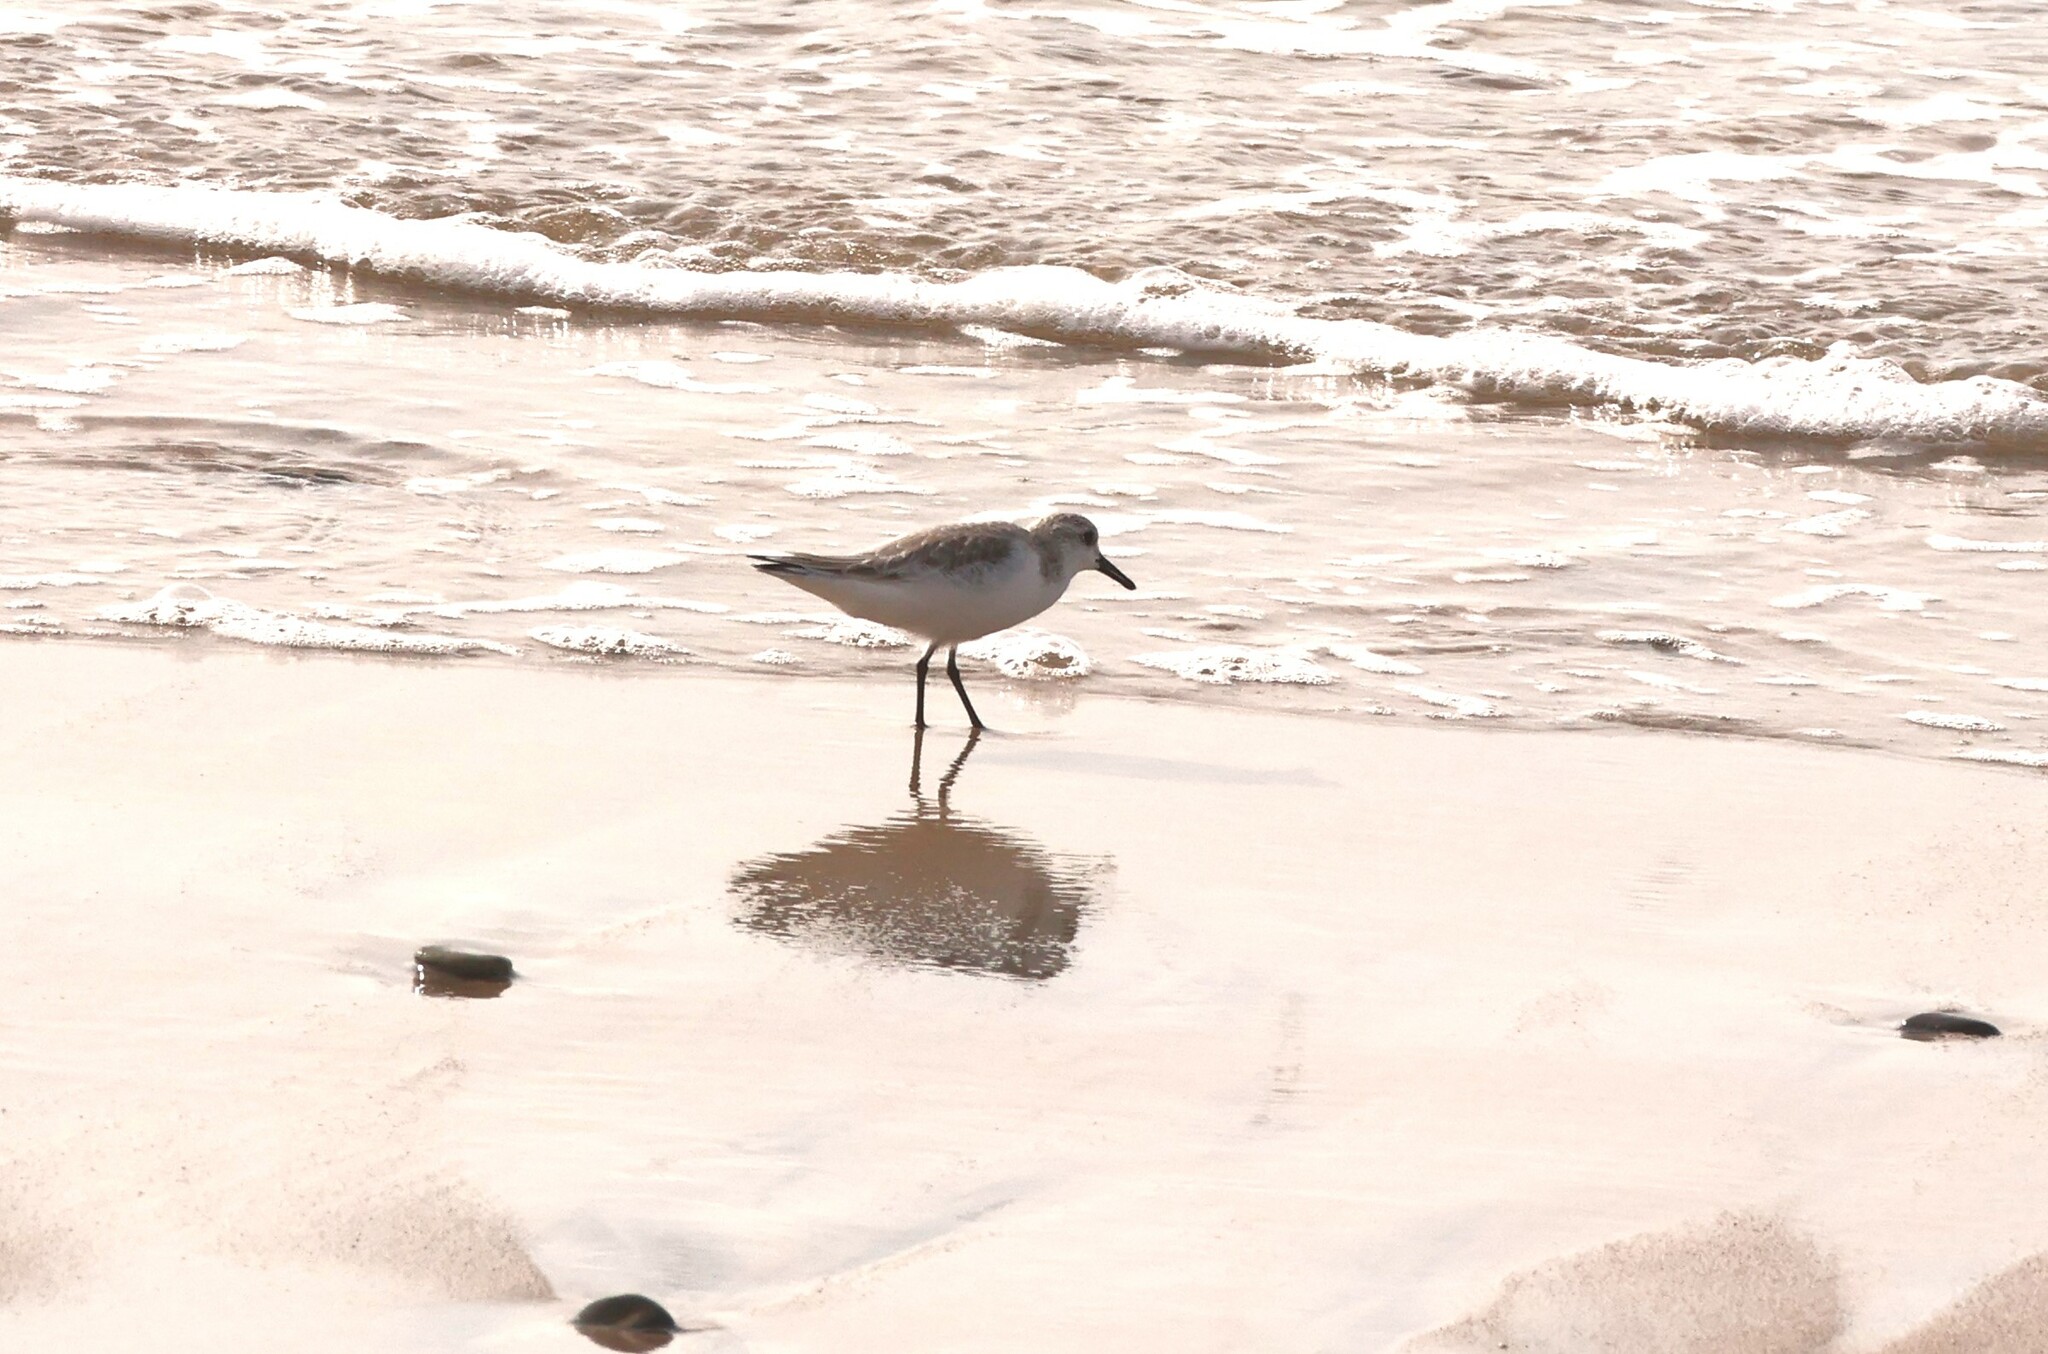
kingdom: Animalia
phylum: Chordata
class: Aves
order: Charadriiformes
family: Scolopacidae
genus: Calidris
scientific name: Calidris alba
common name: Sanderling
